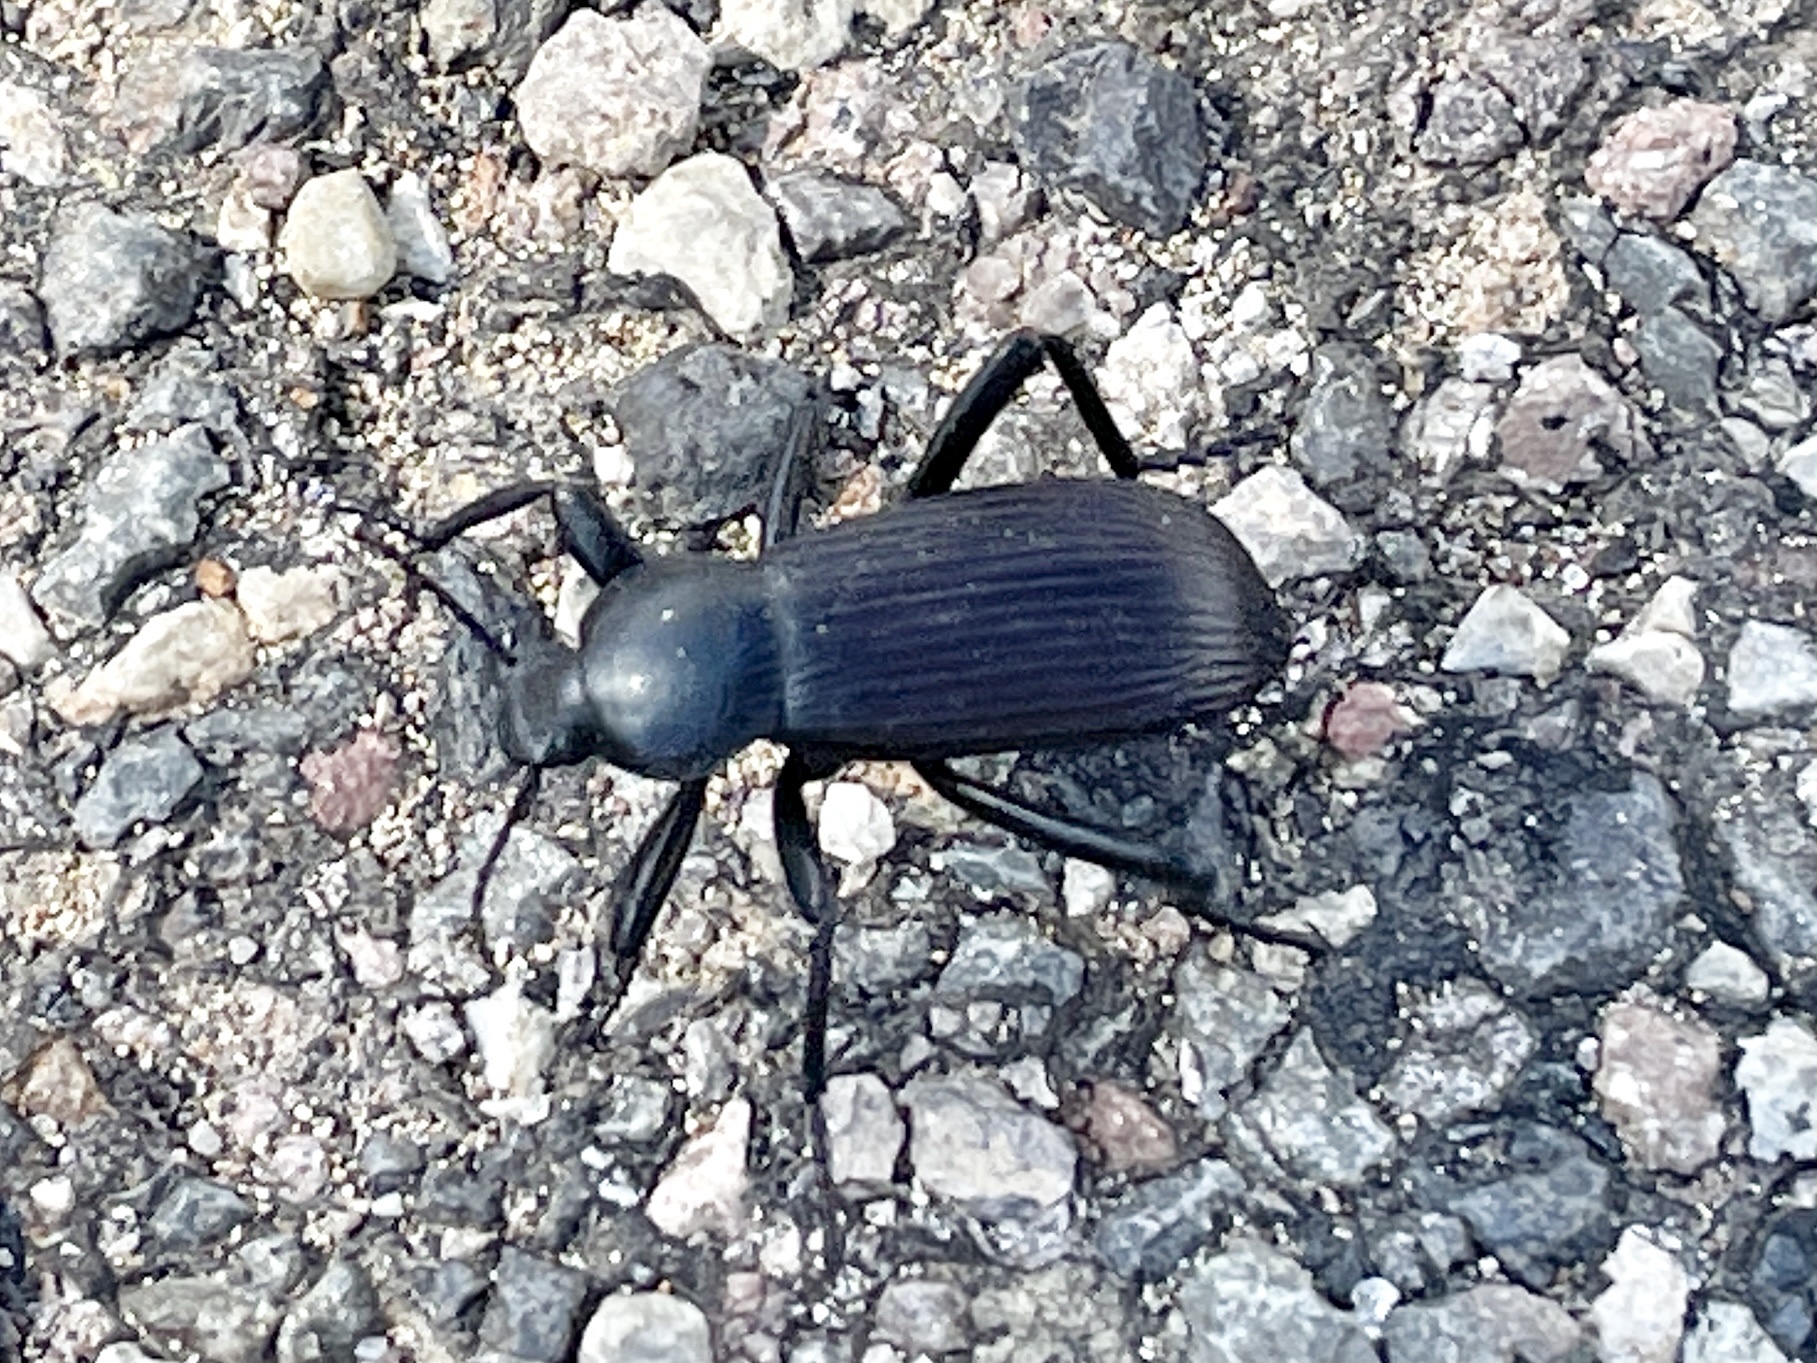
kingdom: Animalia
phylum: Arthropoda
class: Insecta
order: Coleoptera
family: Tenebrionidae
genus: Eleodes
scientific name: Eleodes obscura
